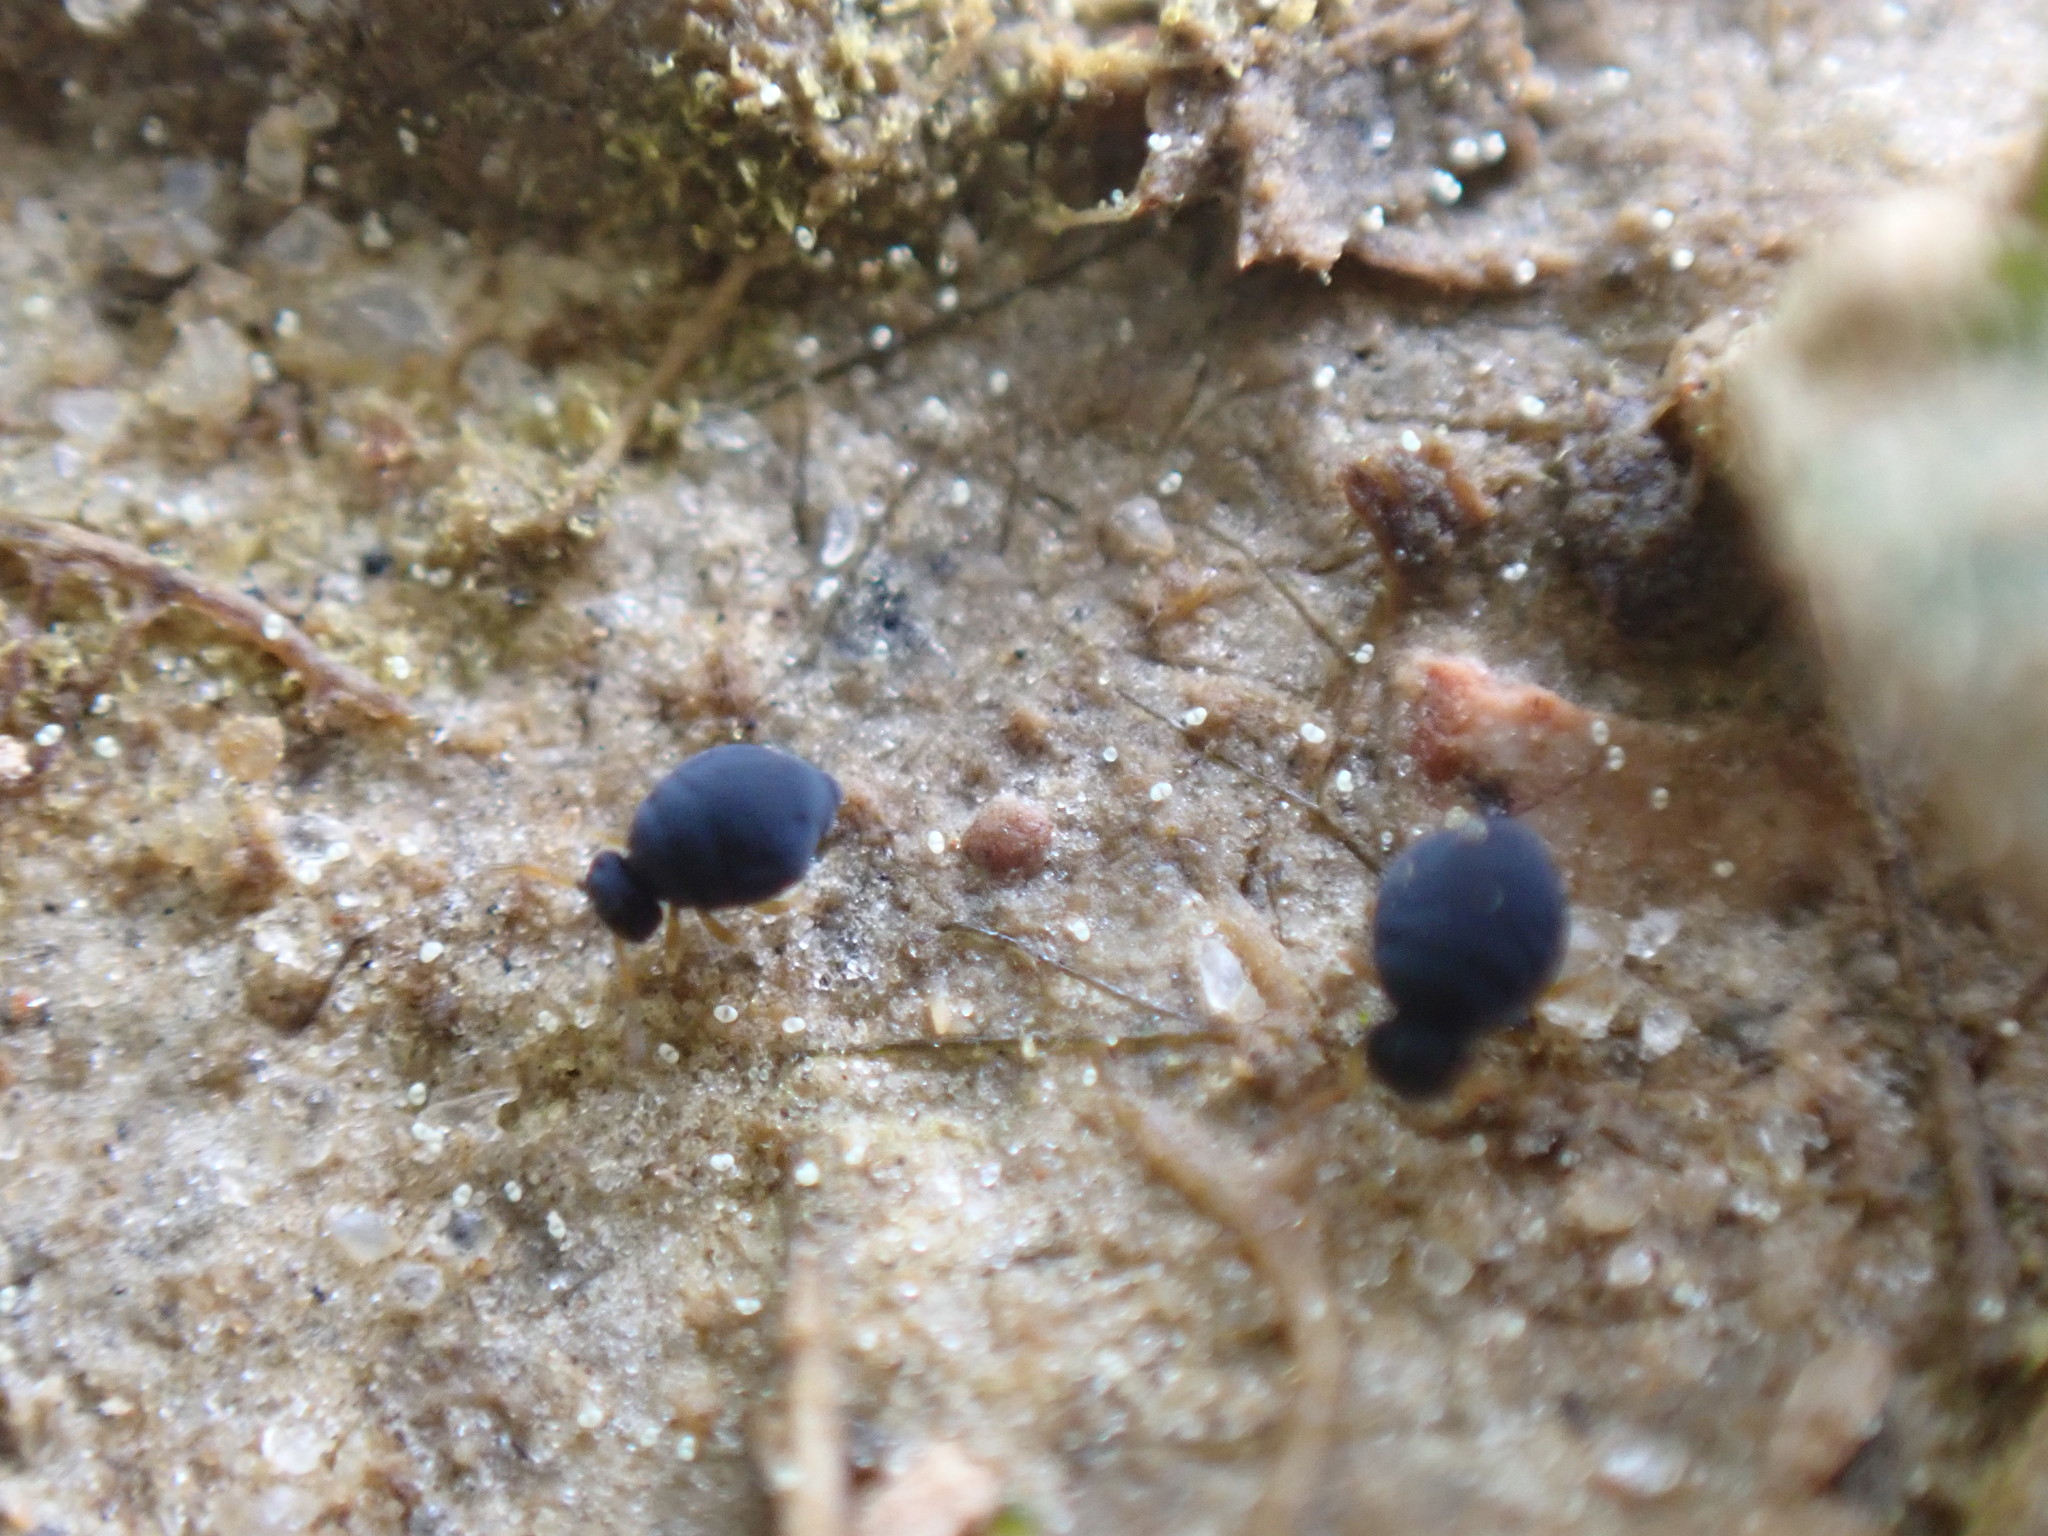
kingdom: Animalia
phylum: Arthropoda
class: Collembola
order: Symphypleona
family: Katiannidae
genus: Sminthurinus
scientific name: Sminthurinus atrapallidus
